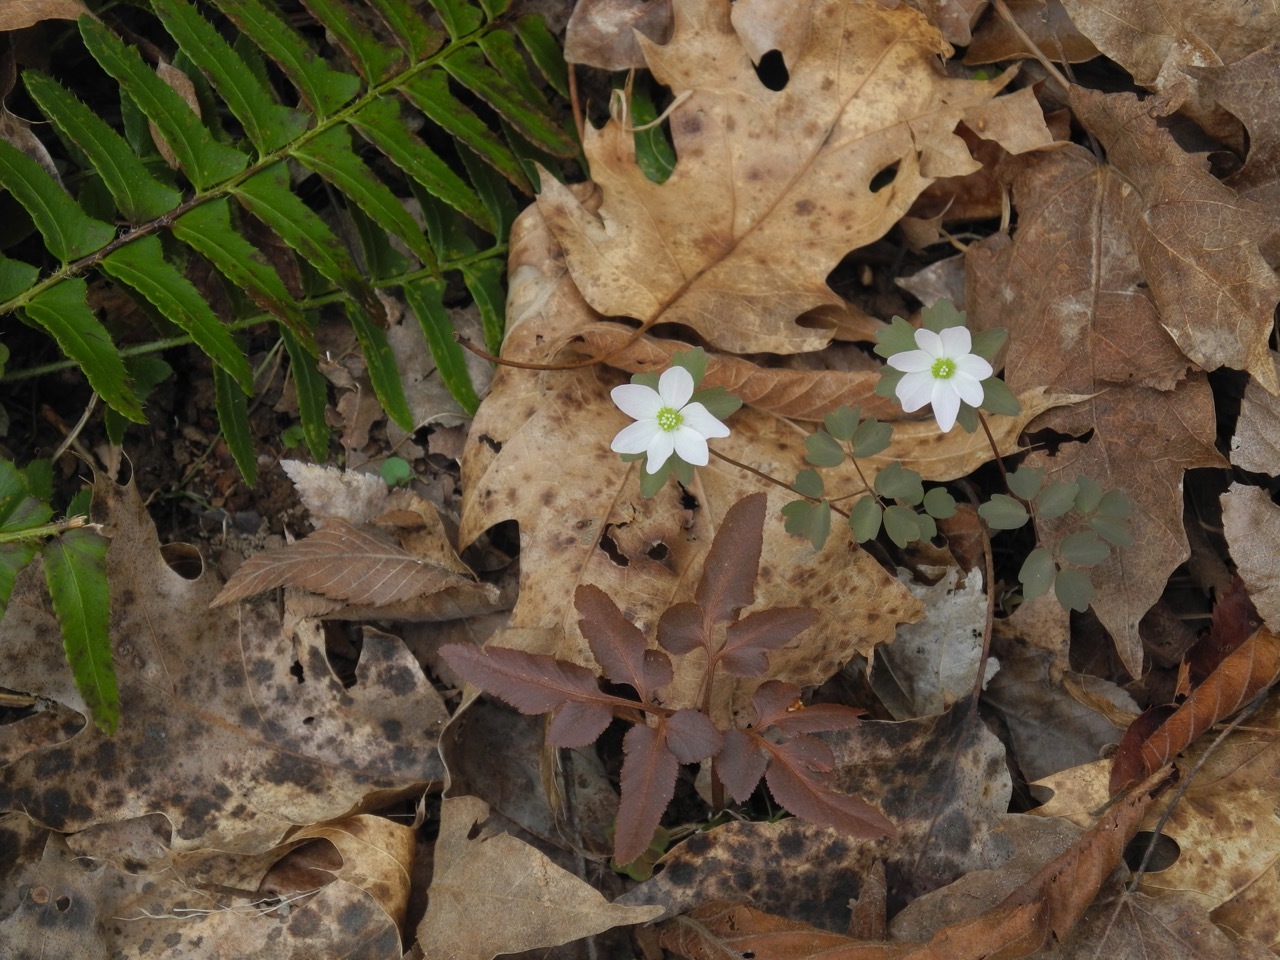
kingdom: Plantae
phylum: Tracheophyta
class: Magnoliopsida
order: Ranunculales
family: Ranunculaceae
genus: Thalictrum
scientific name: Thalictrum thalictroides
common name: Rue-anemone
